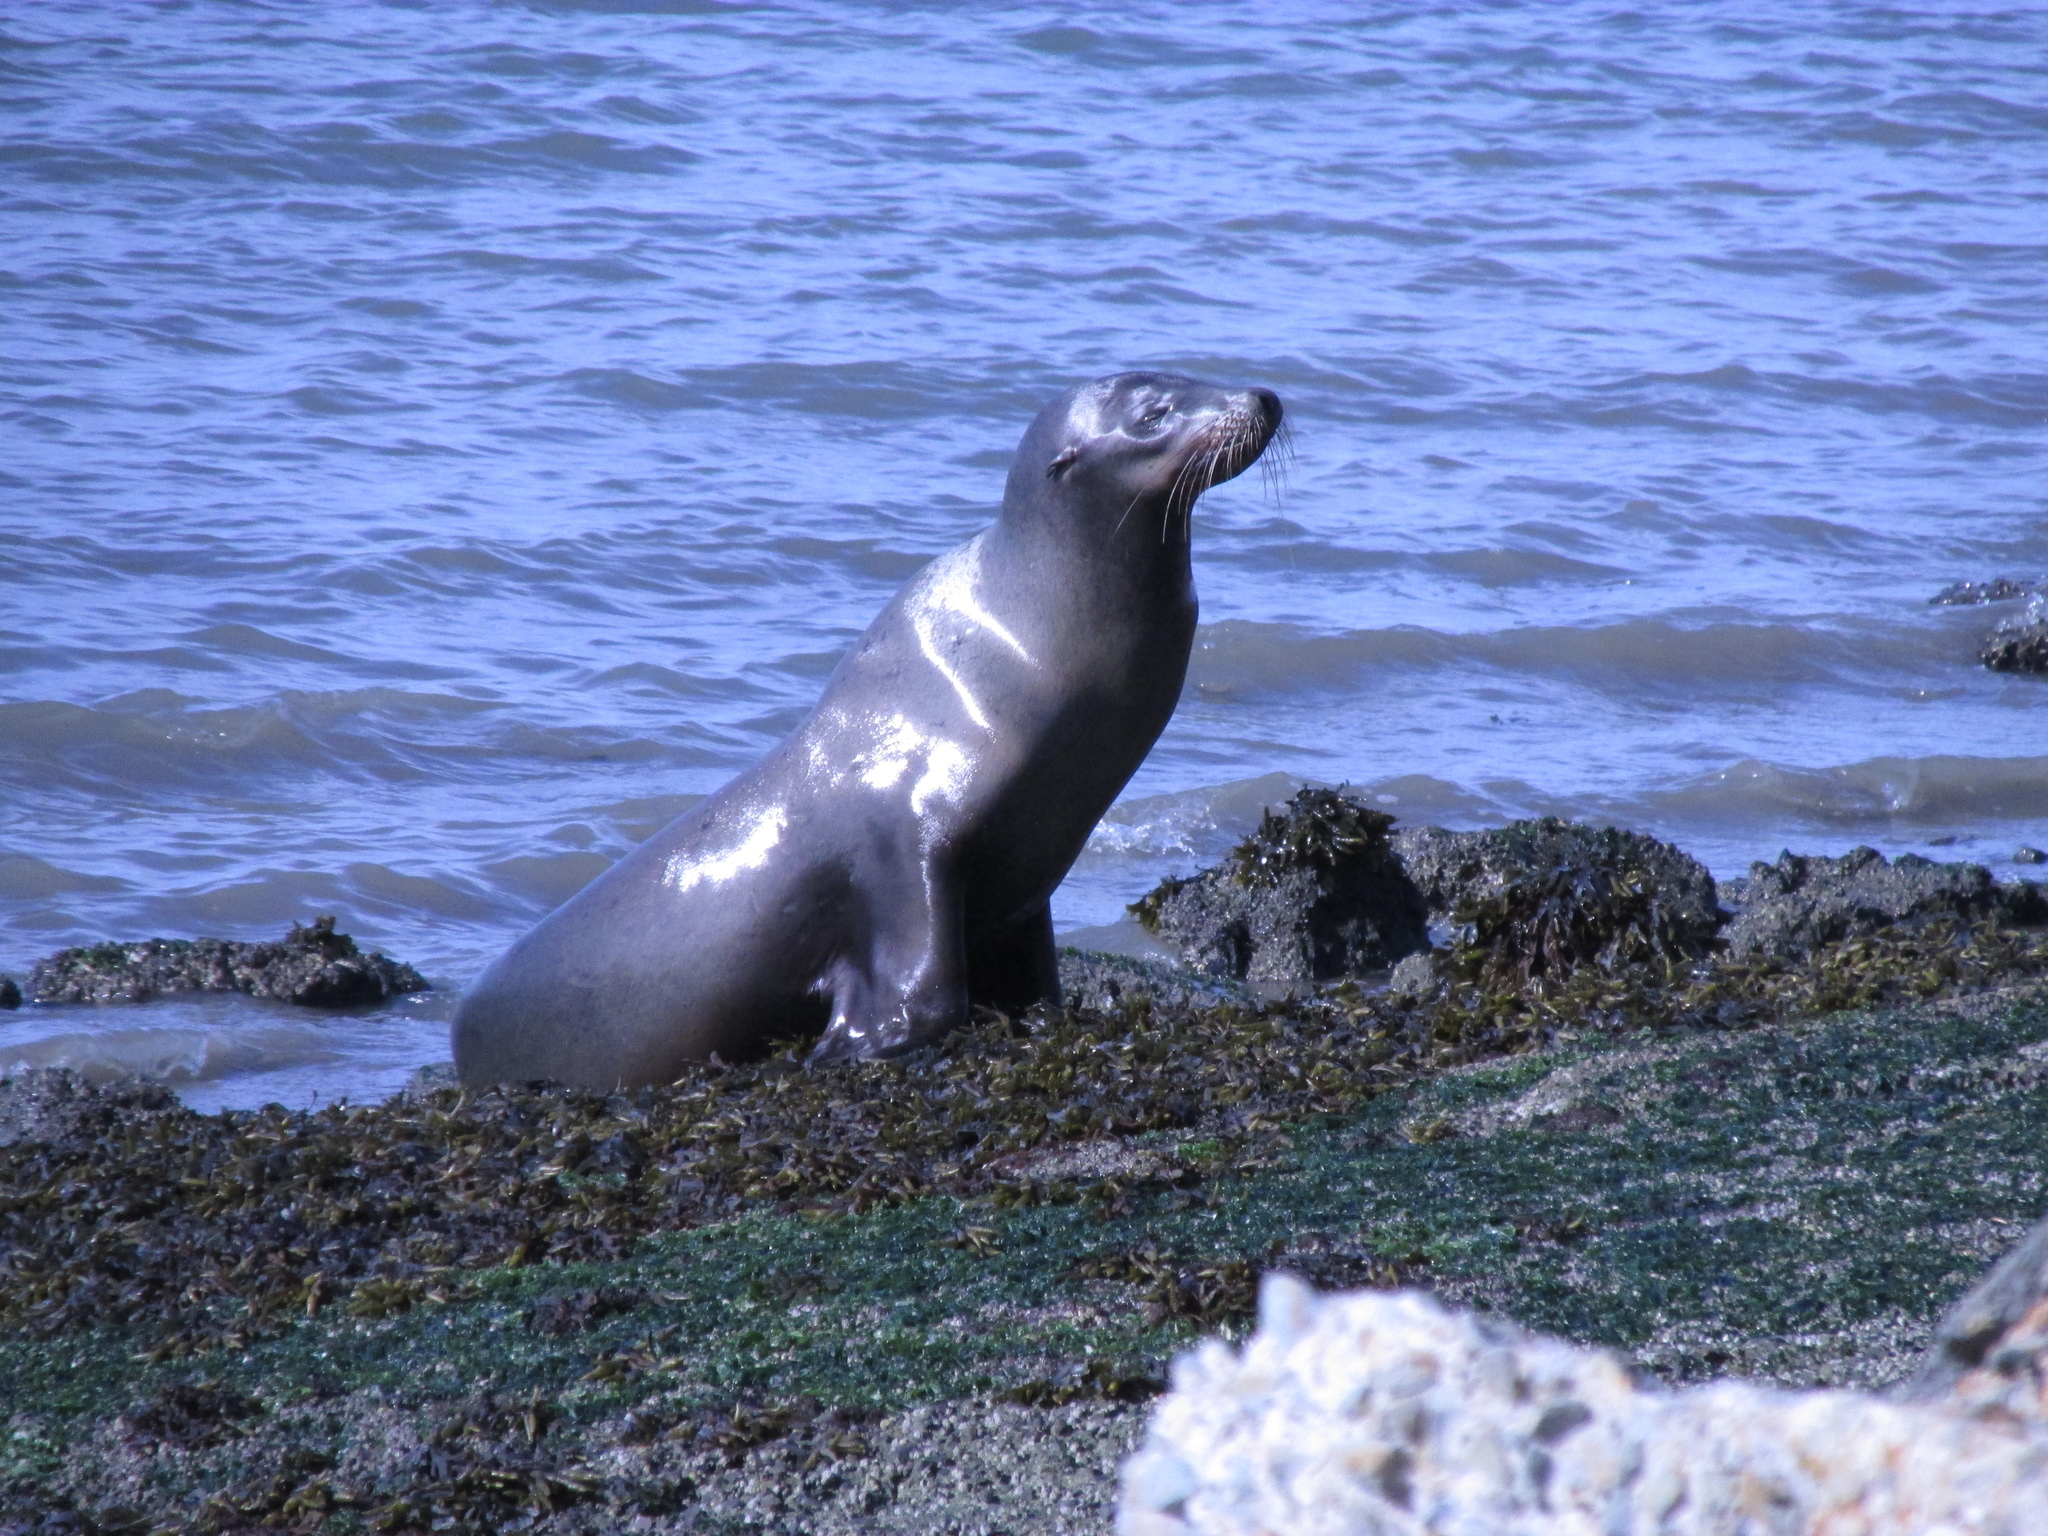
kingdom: Animalia
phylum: Chordata
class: Mammalia
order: Carnivora
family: Otariidae
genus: Zalophus
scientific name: Zalophus californianus
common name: California sea lion
